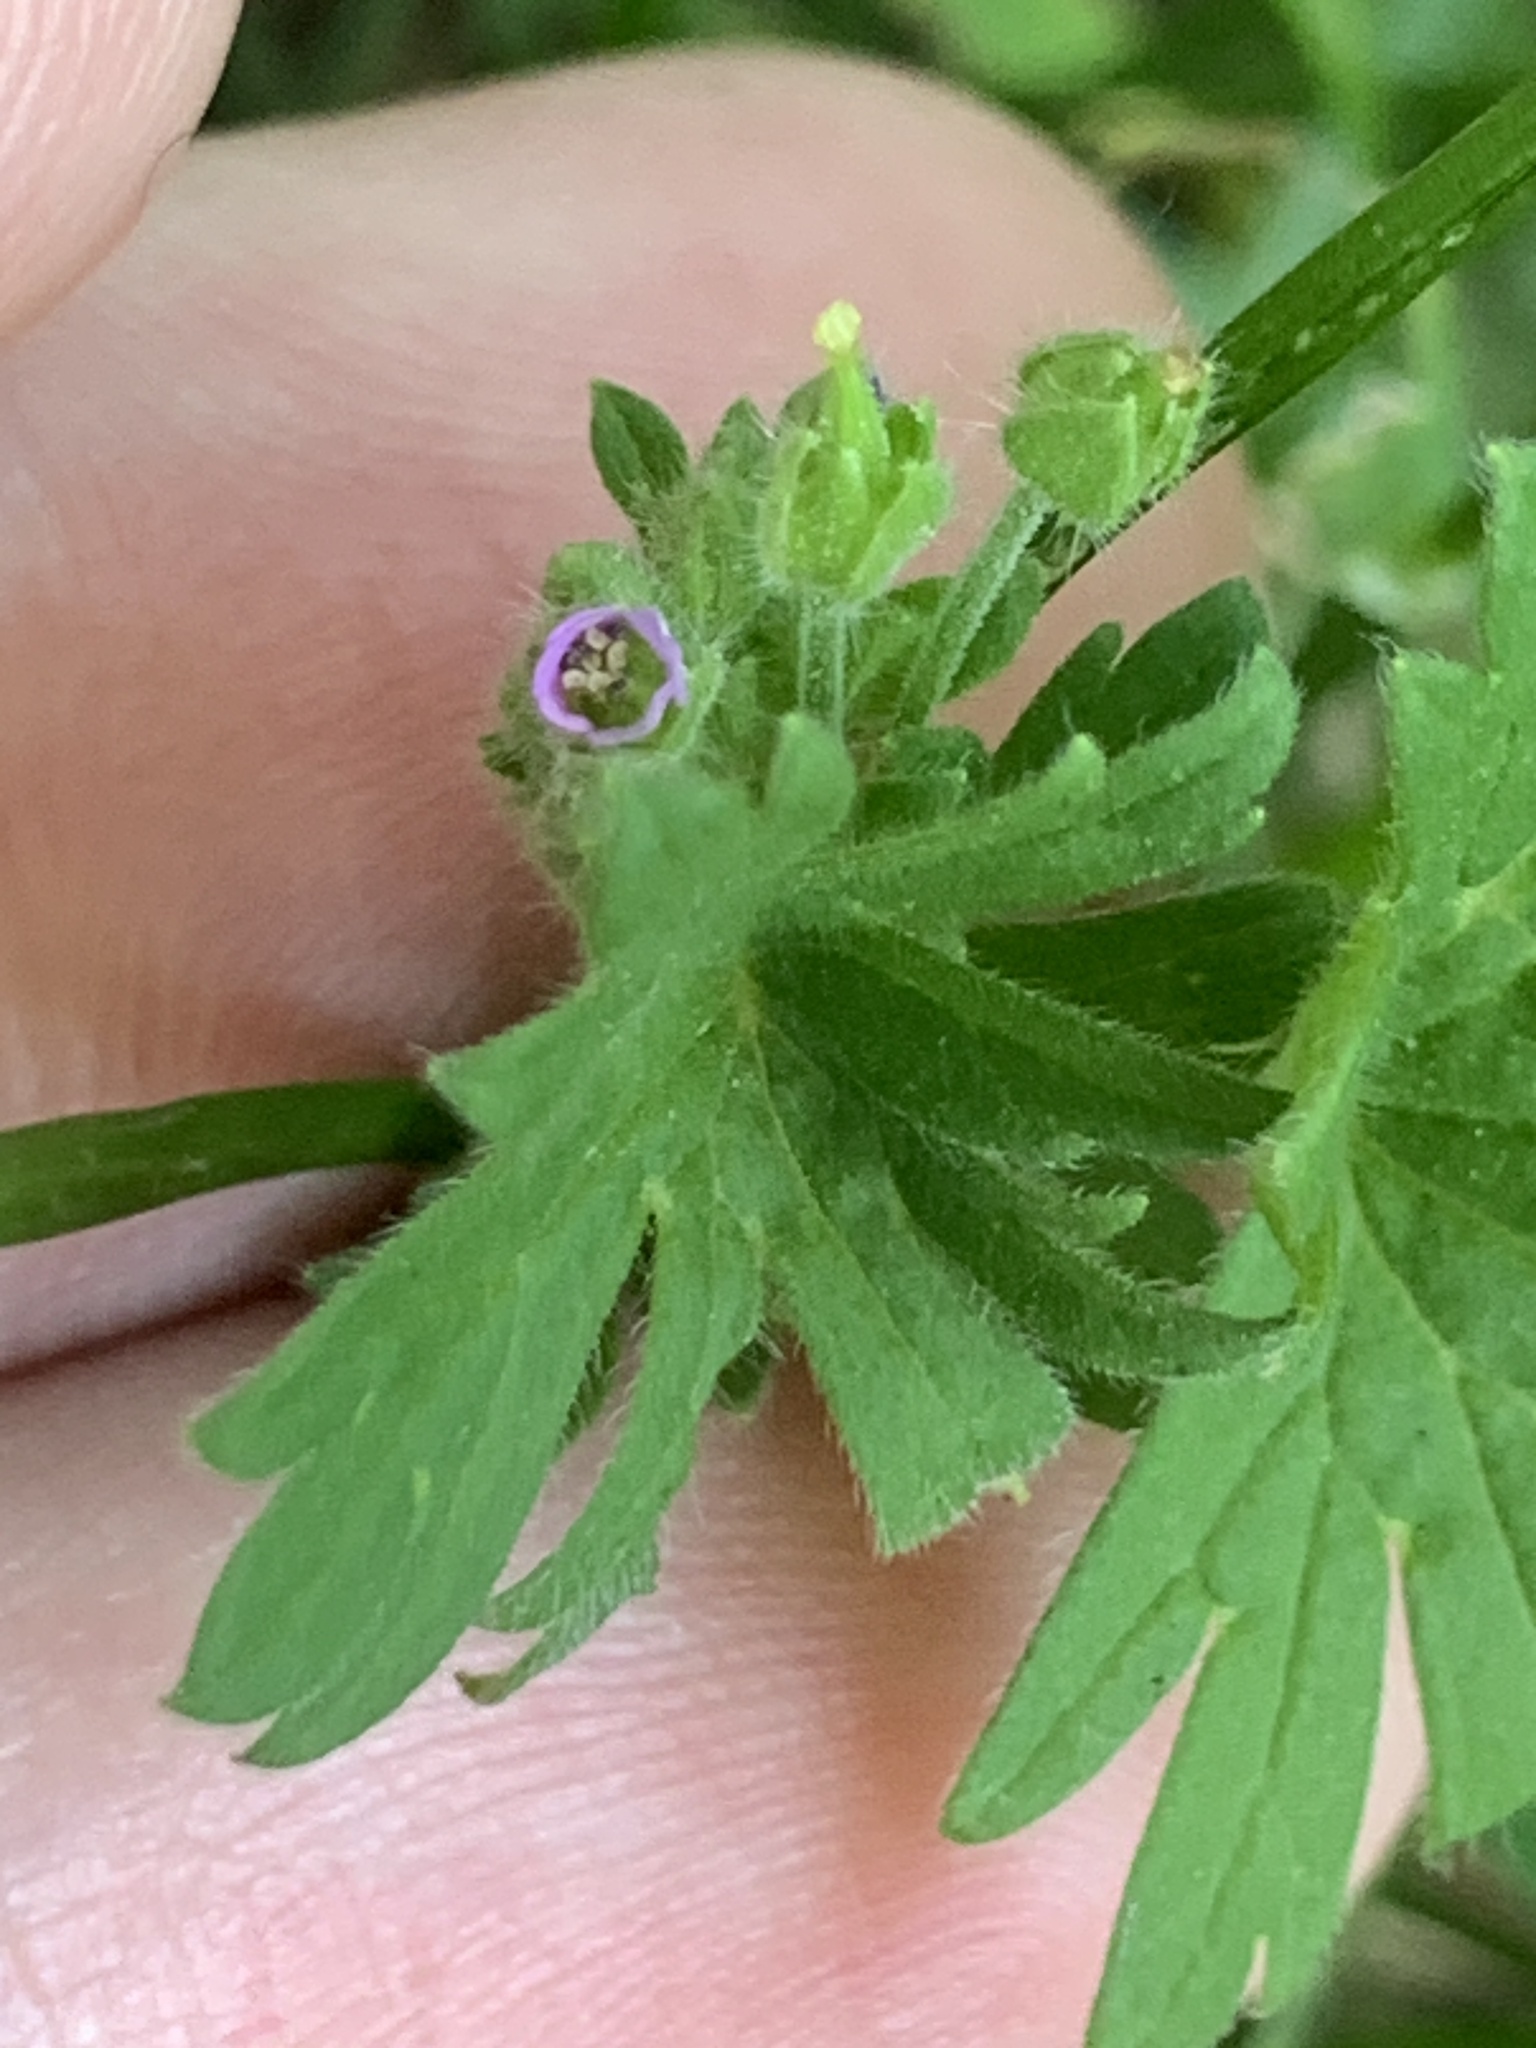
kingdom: Plantae
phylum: Tracheophyta
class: Magnoliopsida
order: Geraniales
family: Geraniaceae
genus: Geranium
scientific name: Geranium pusillum
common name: Small geranium
